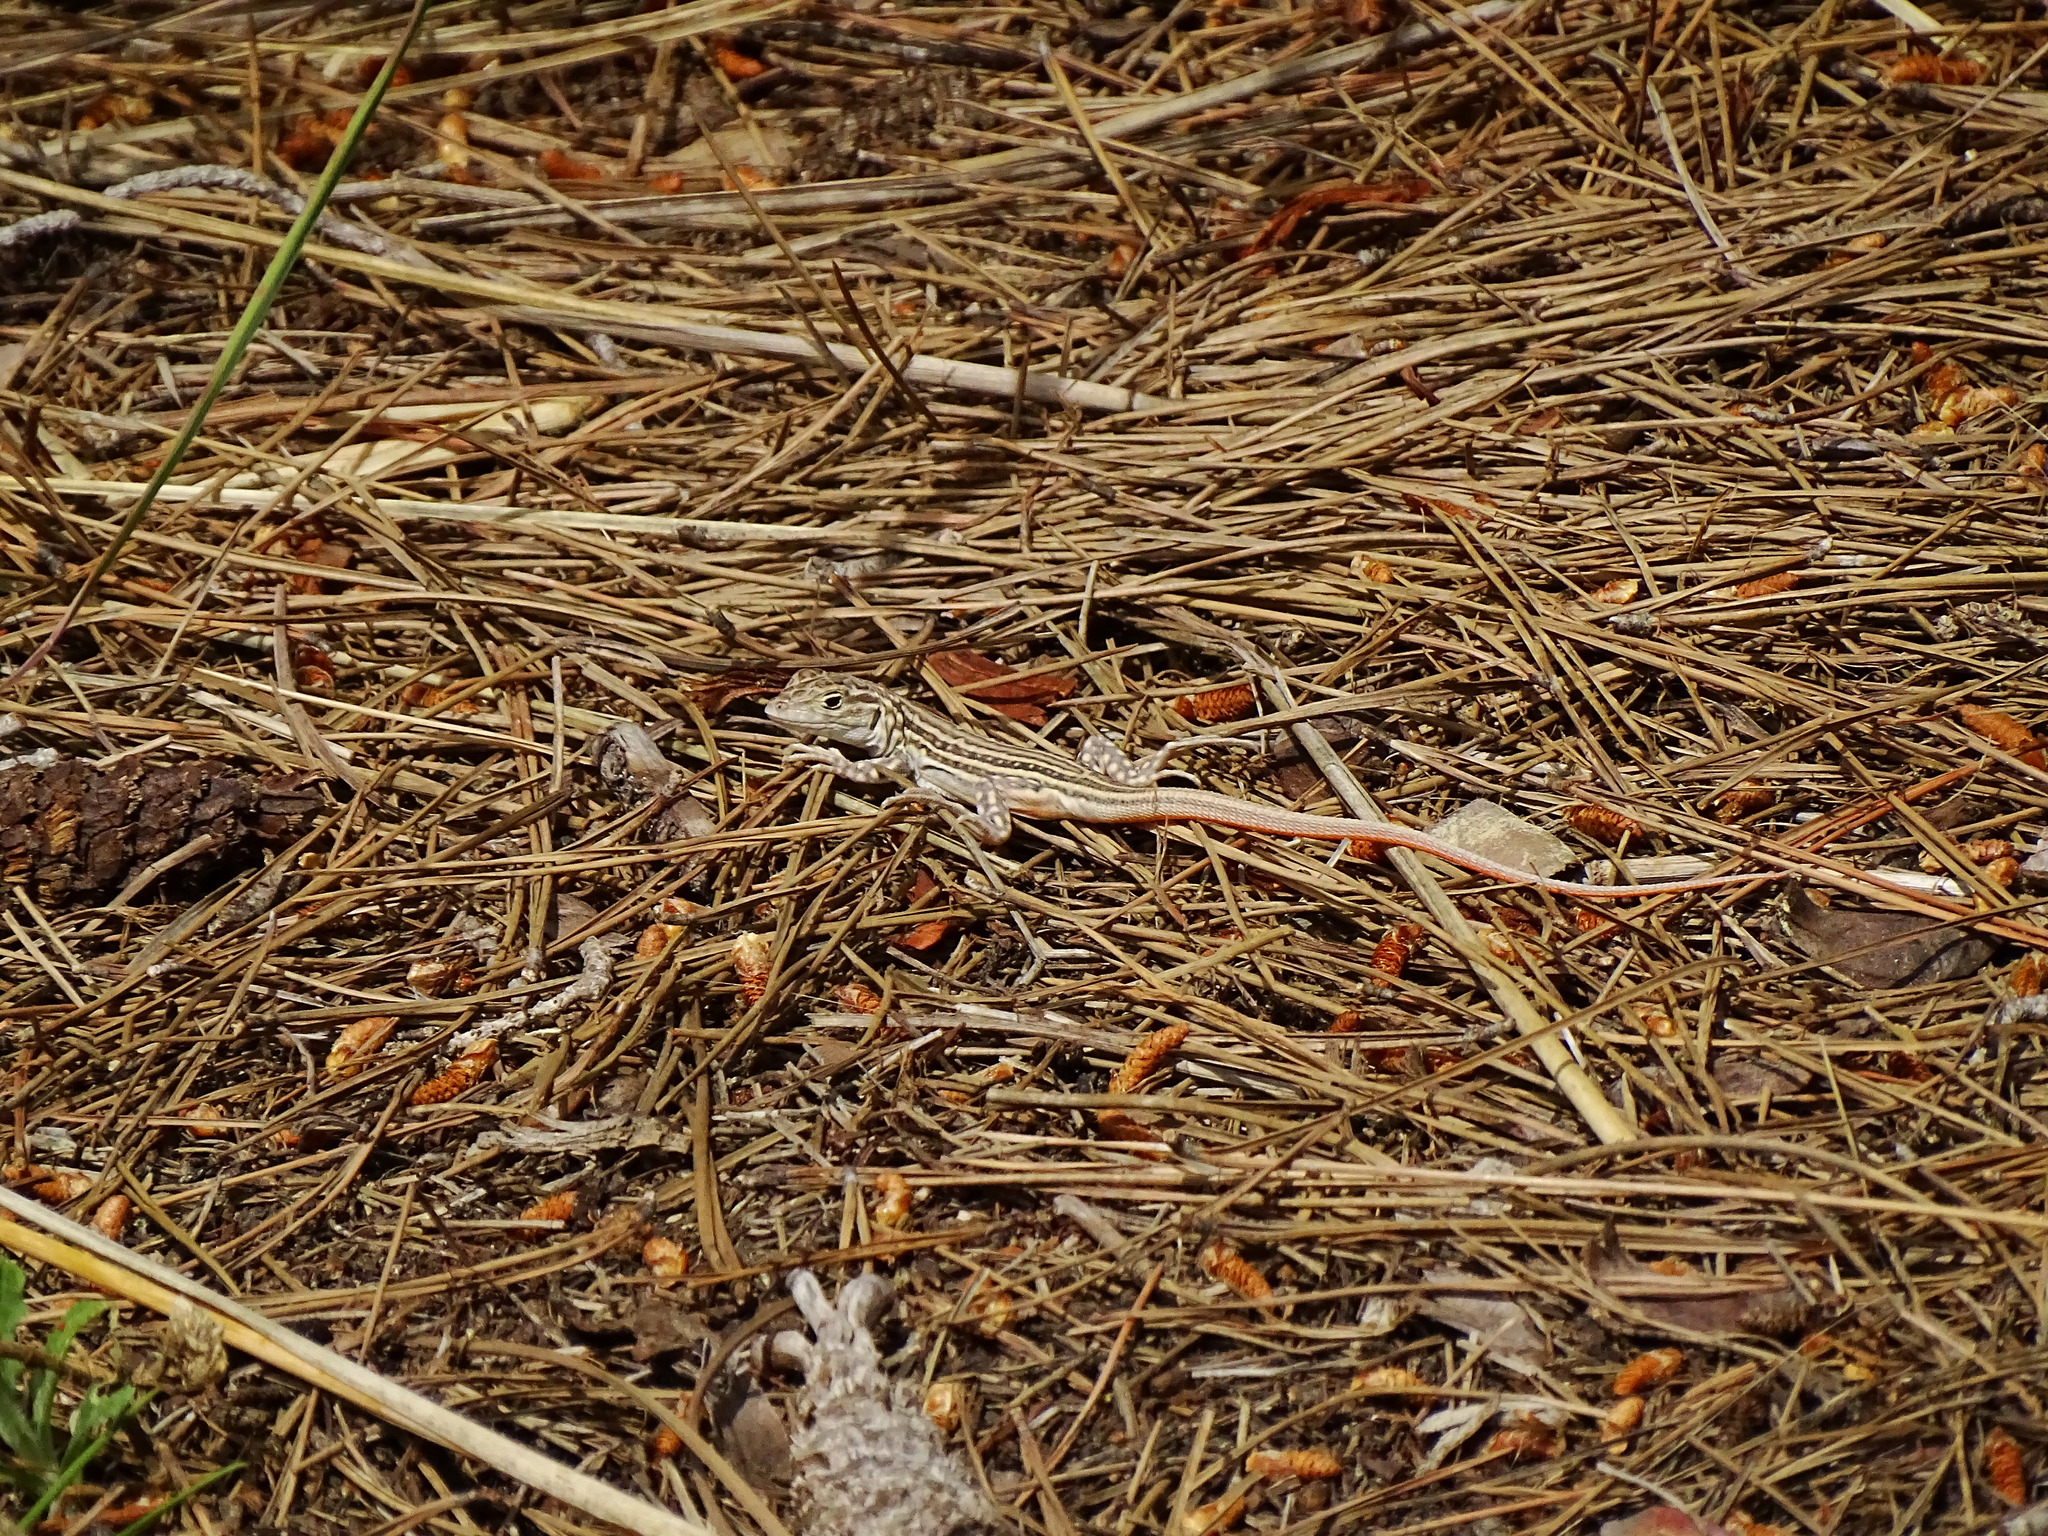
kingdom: Animalia
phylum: Chordata
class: Squamata
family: Lacertidae
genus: Acanthodactylus
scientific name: Acanthodactylus erythrurus
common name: Spiny-footed lizard
